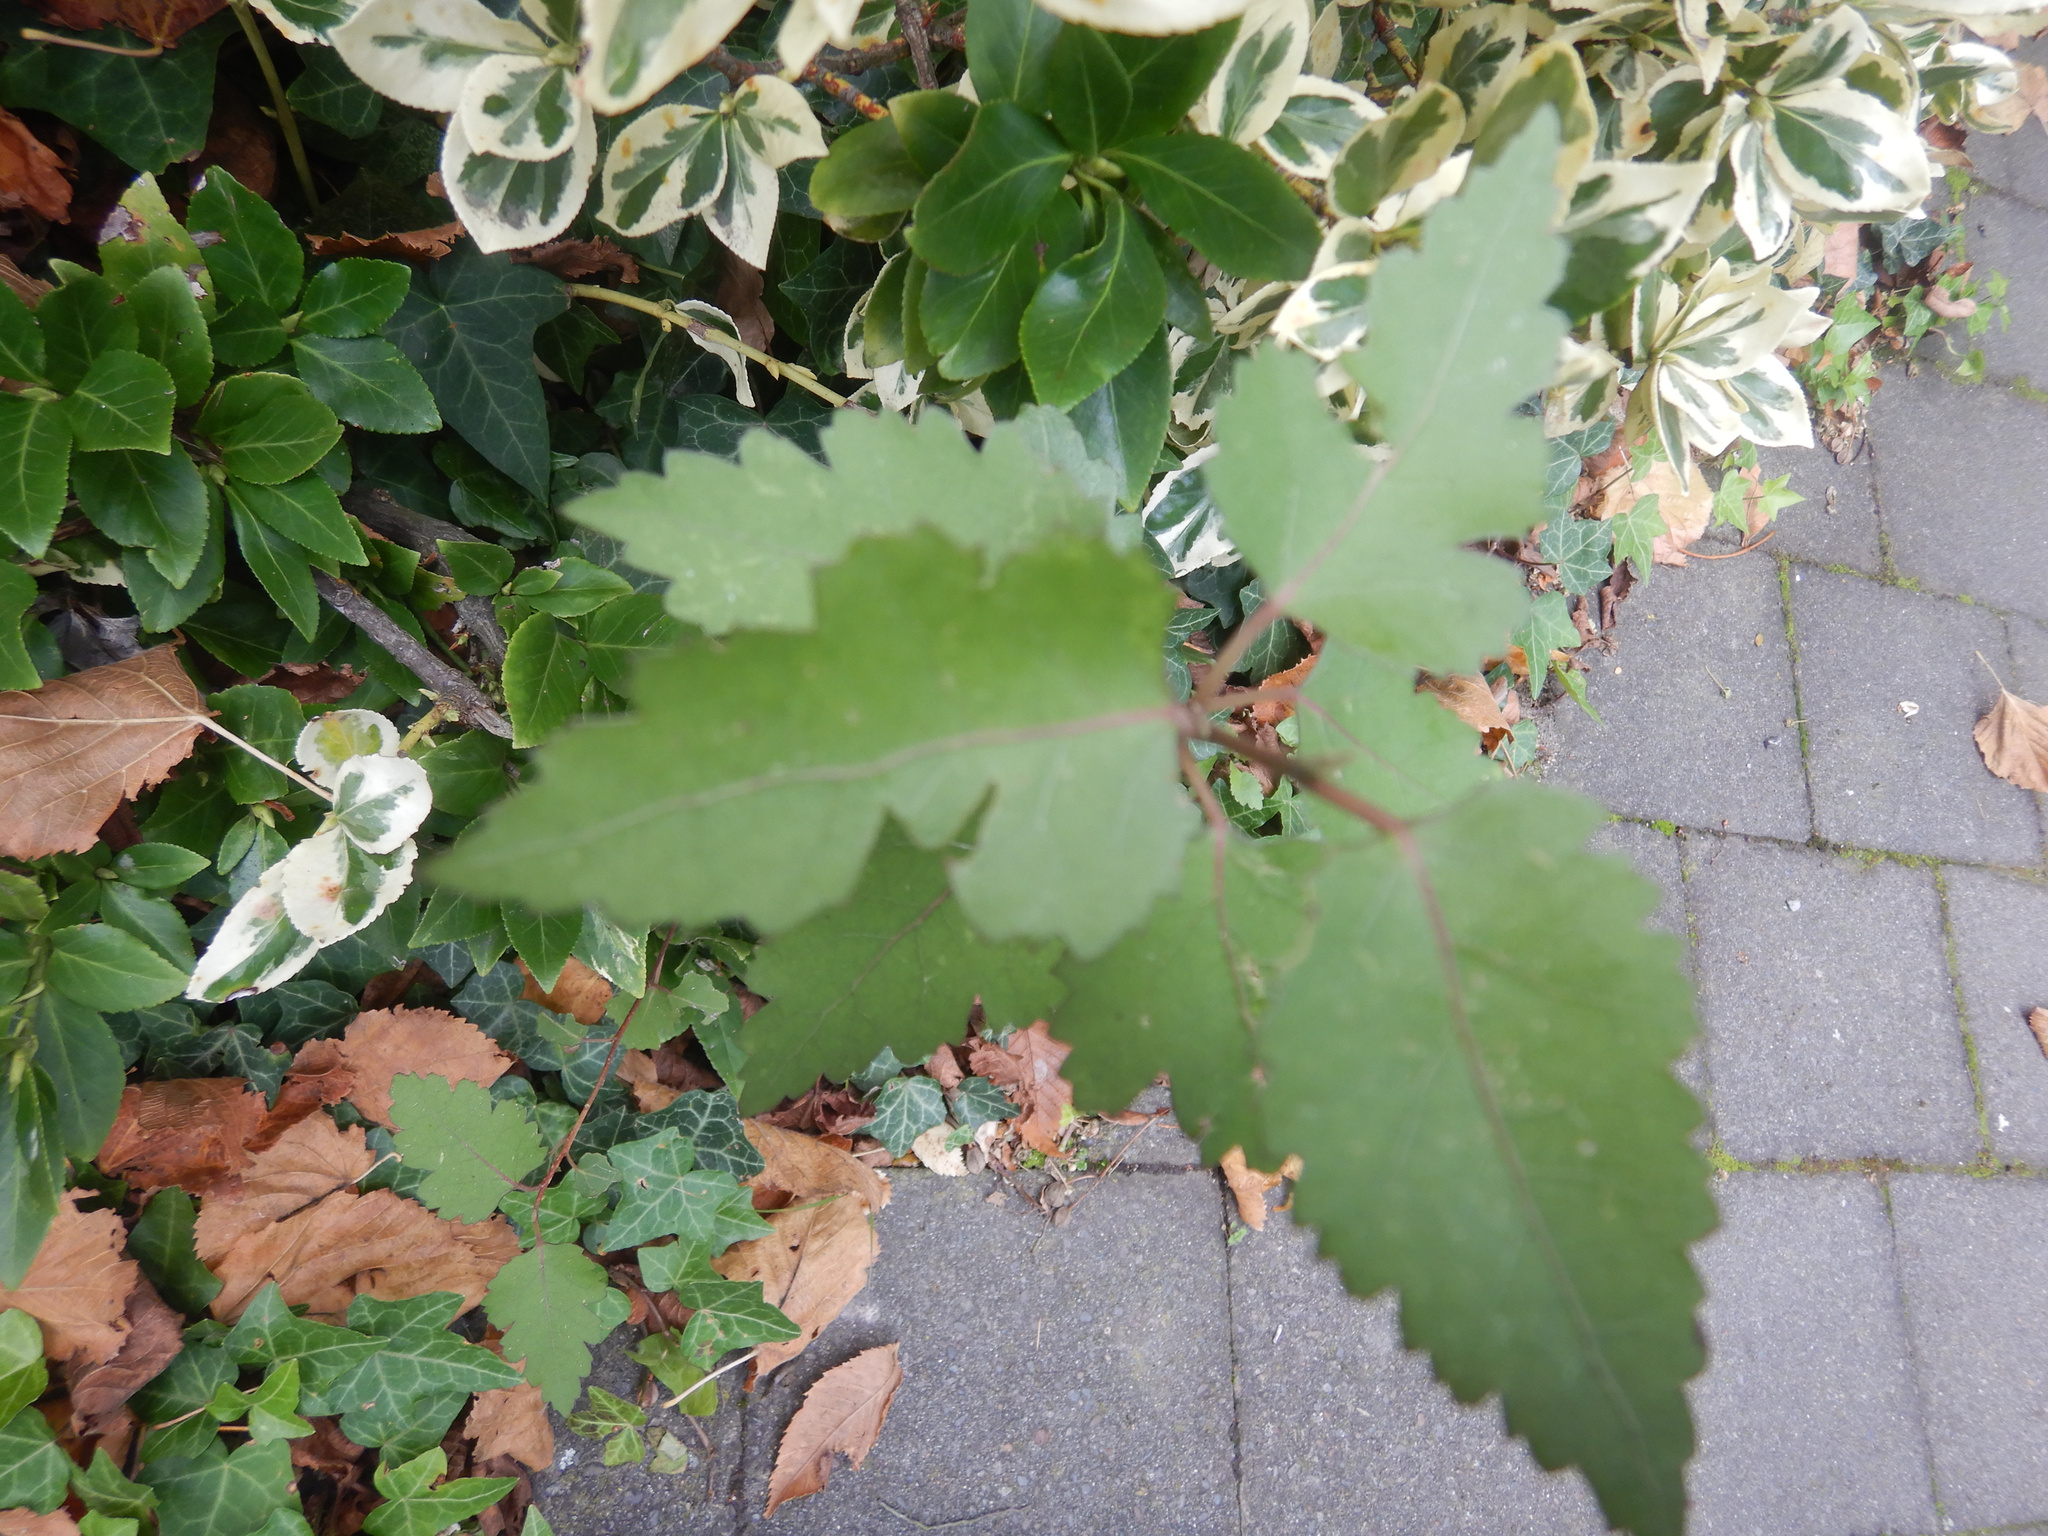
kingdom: Plantae
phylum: Tracheophyta
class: Magnoliopsida
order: Malvales
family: Malvaceae
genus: Plagianthus
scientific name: Plagianthus regius
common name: Manatu
